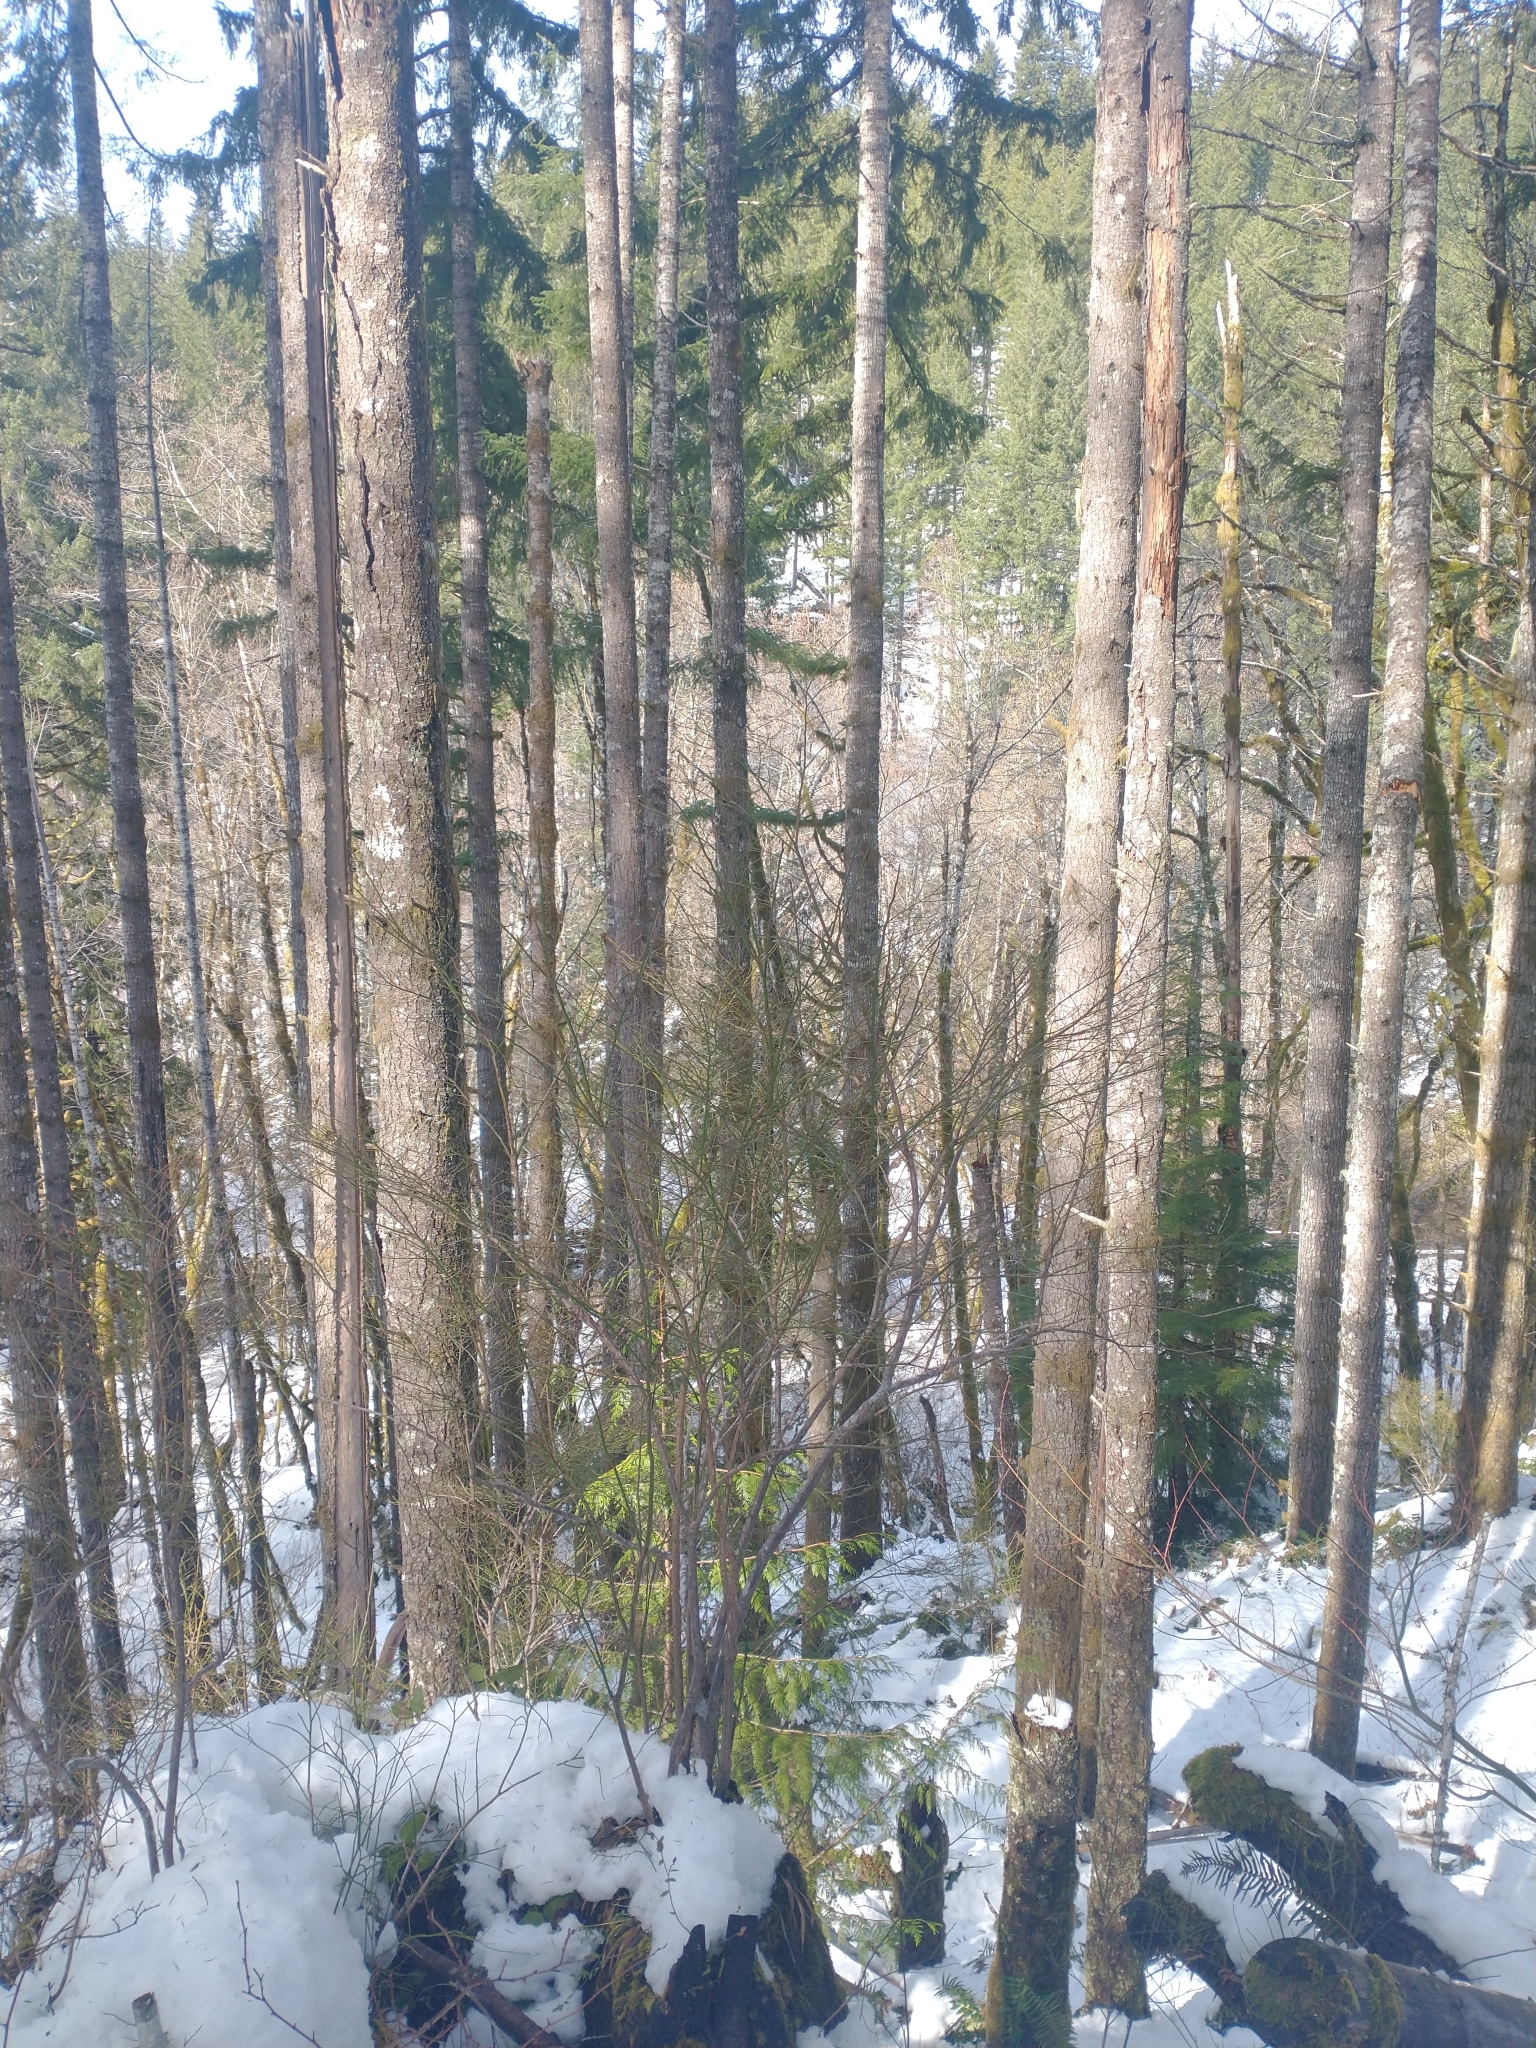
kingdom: Plantae
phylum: Tracheophyta
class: Pinopsida
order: Pinales
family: Pinaceae
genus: Pseudotsuga
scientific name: Pseudotsuga menziesii
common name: Douglas fir
